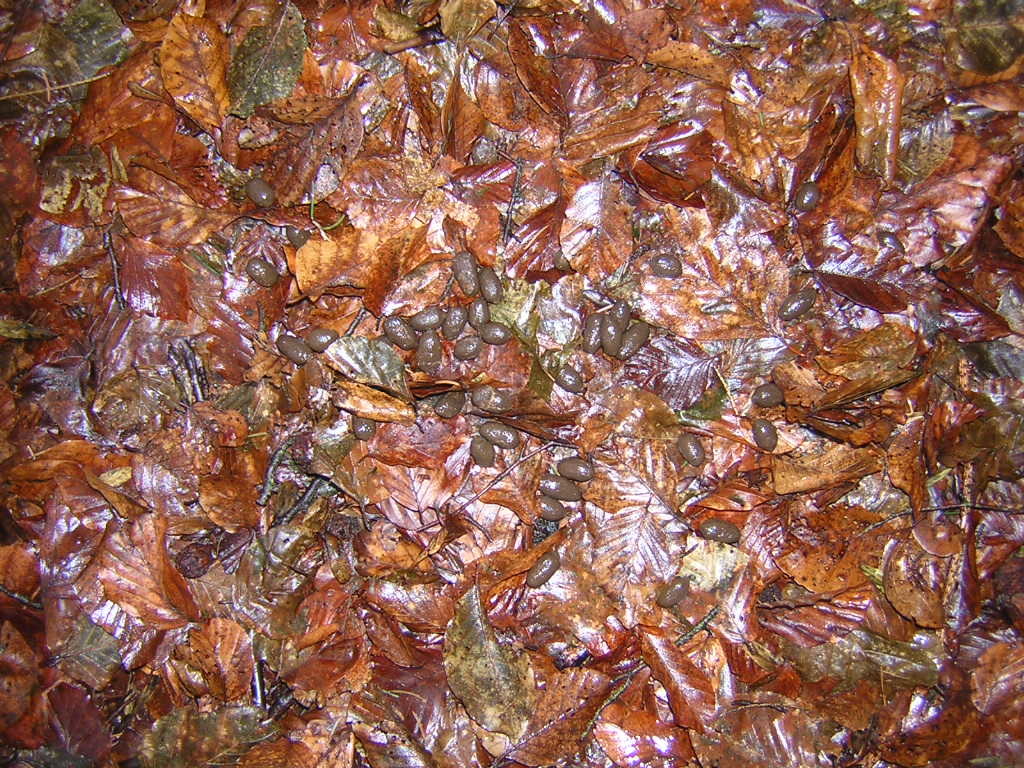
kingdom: Animalia
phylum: Chordata
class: Mammalia
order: Artiodactyla
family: Cervidae
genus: Capreolus
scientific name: Capreolus capreolus
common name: Western roe deer
